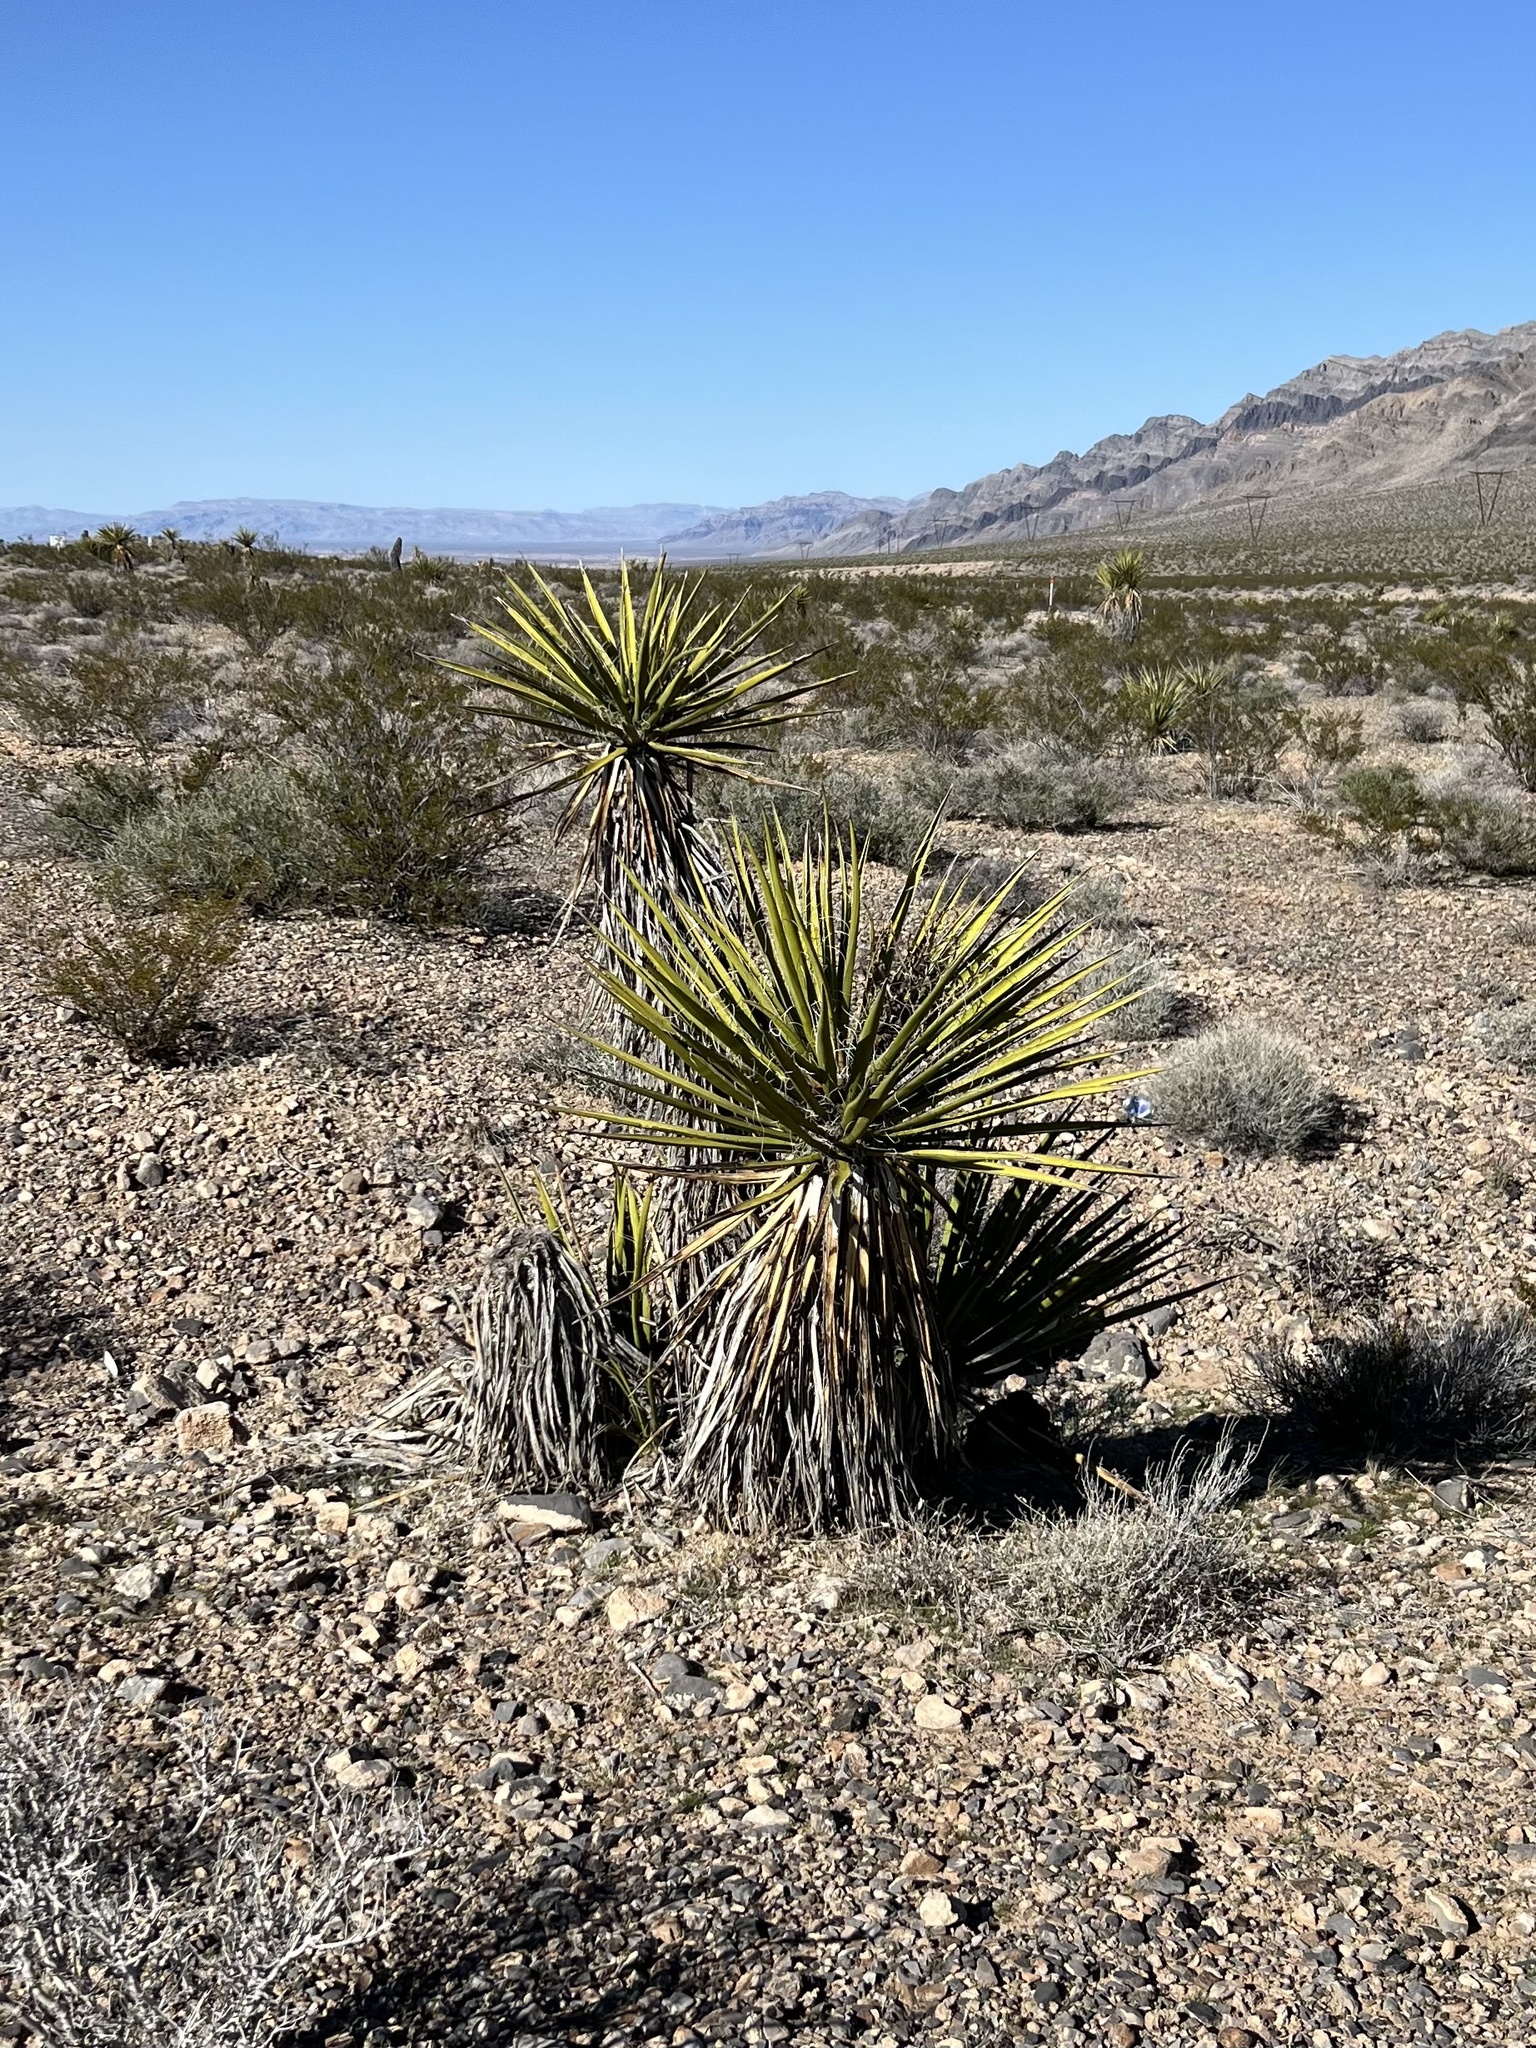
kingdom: Plantae
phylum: Tracheophyta
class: Liliopsida
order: Asparagales
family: Asparagaceae
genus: Yucca
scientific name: Yucca schidigera
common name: Mojave yucca
